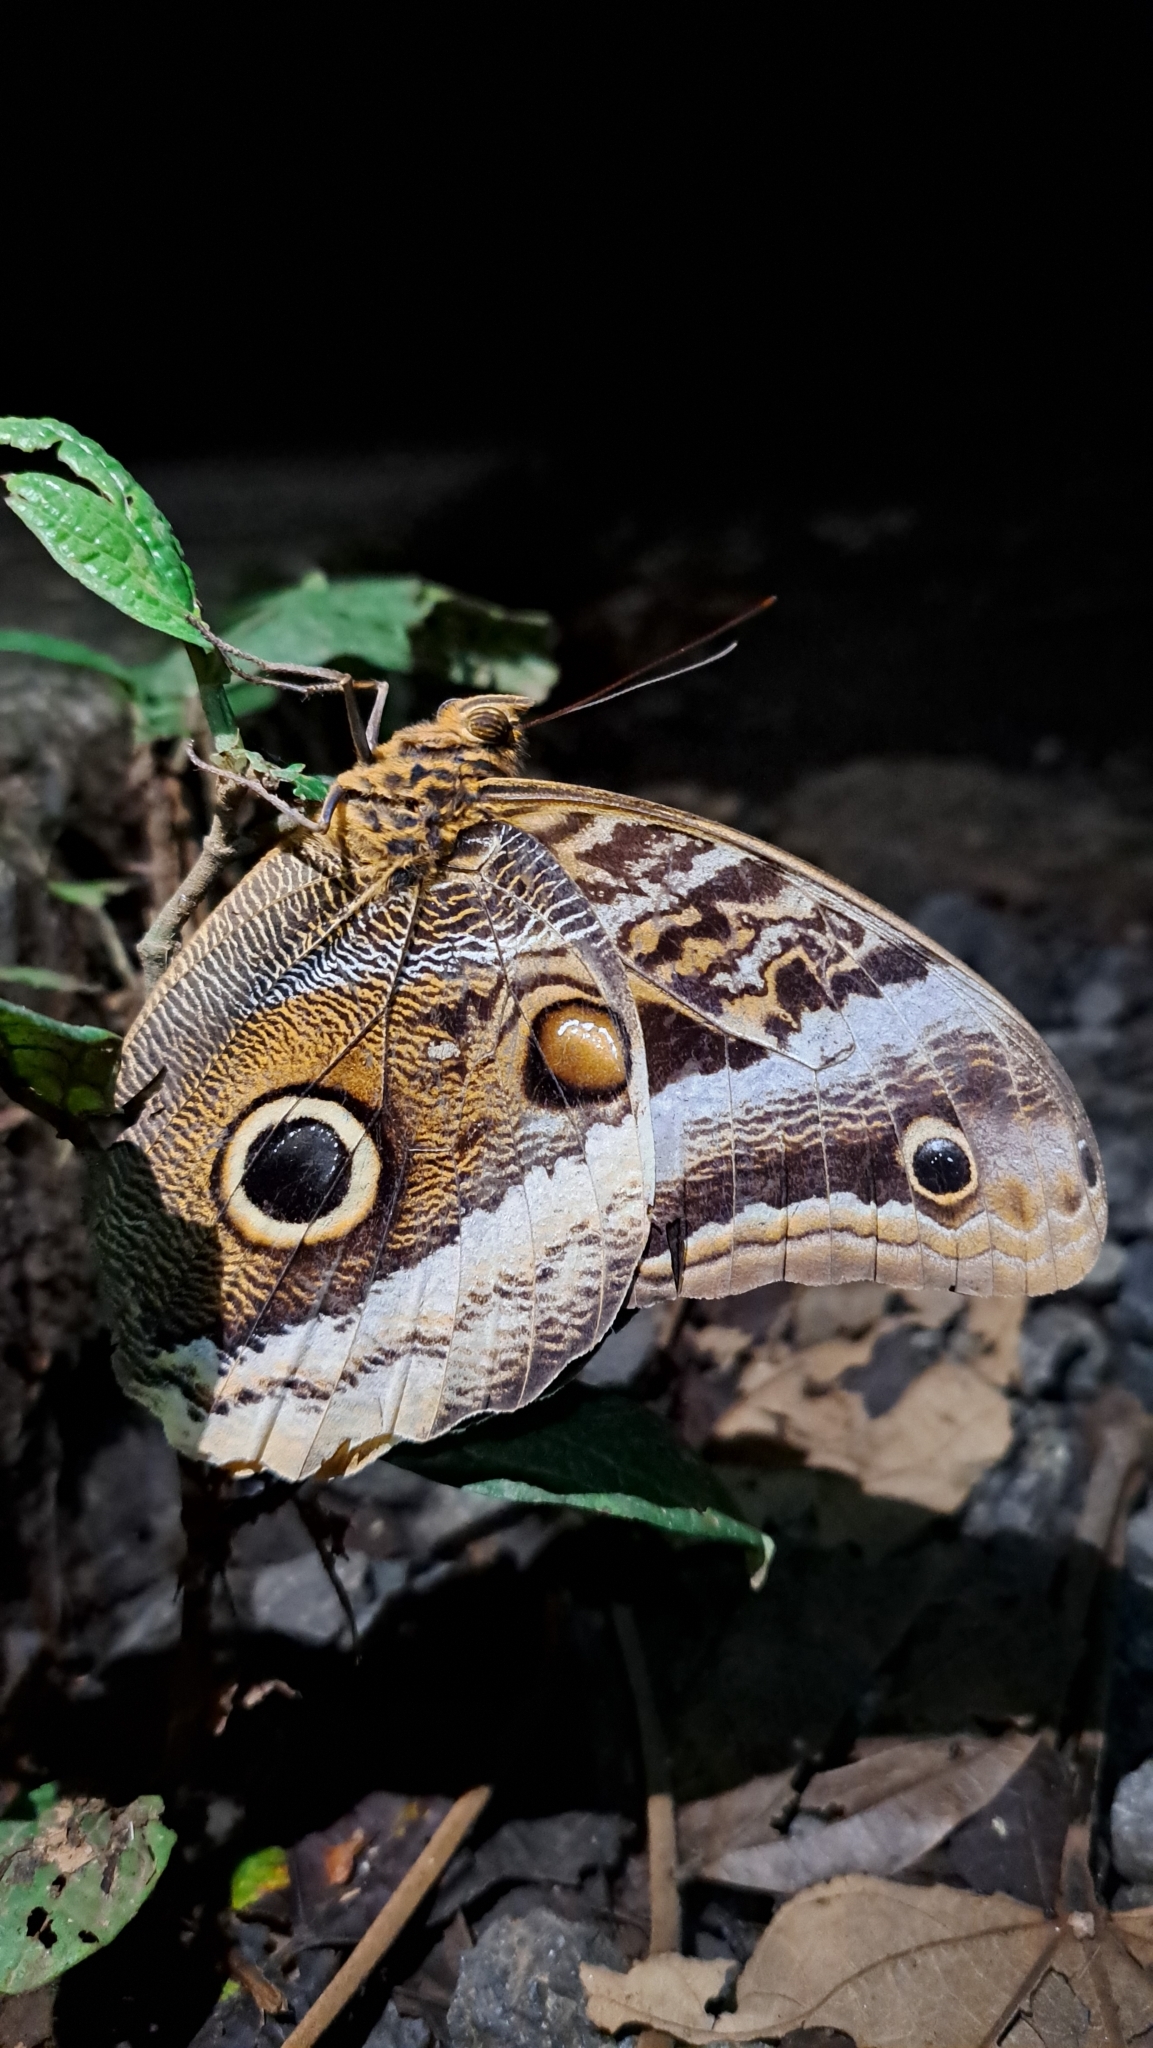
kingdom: Animalia
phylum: Arthropoda
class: Insecta
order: Lepidoptera
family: Nymphalidae
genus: Caligo
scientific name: Caligo atreus
